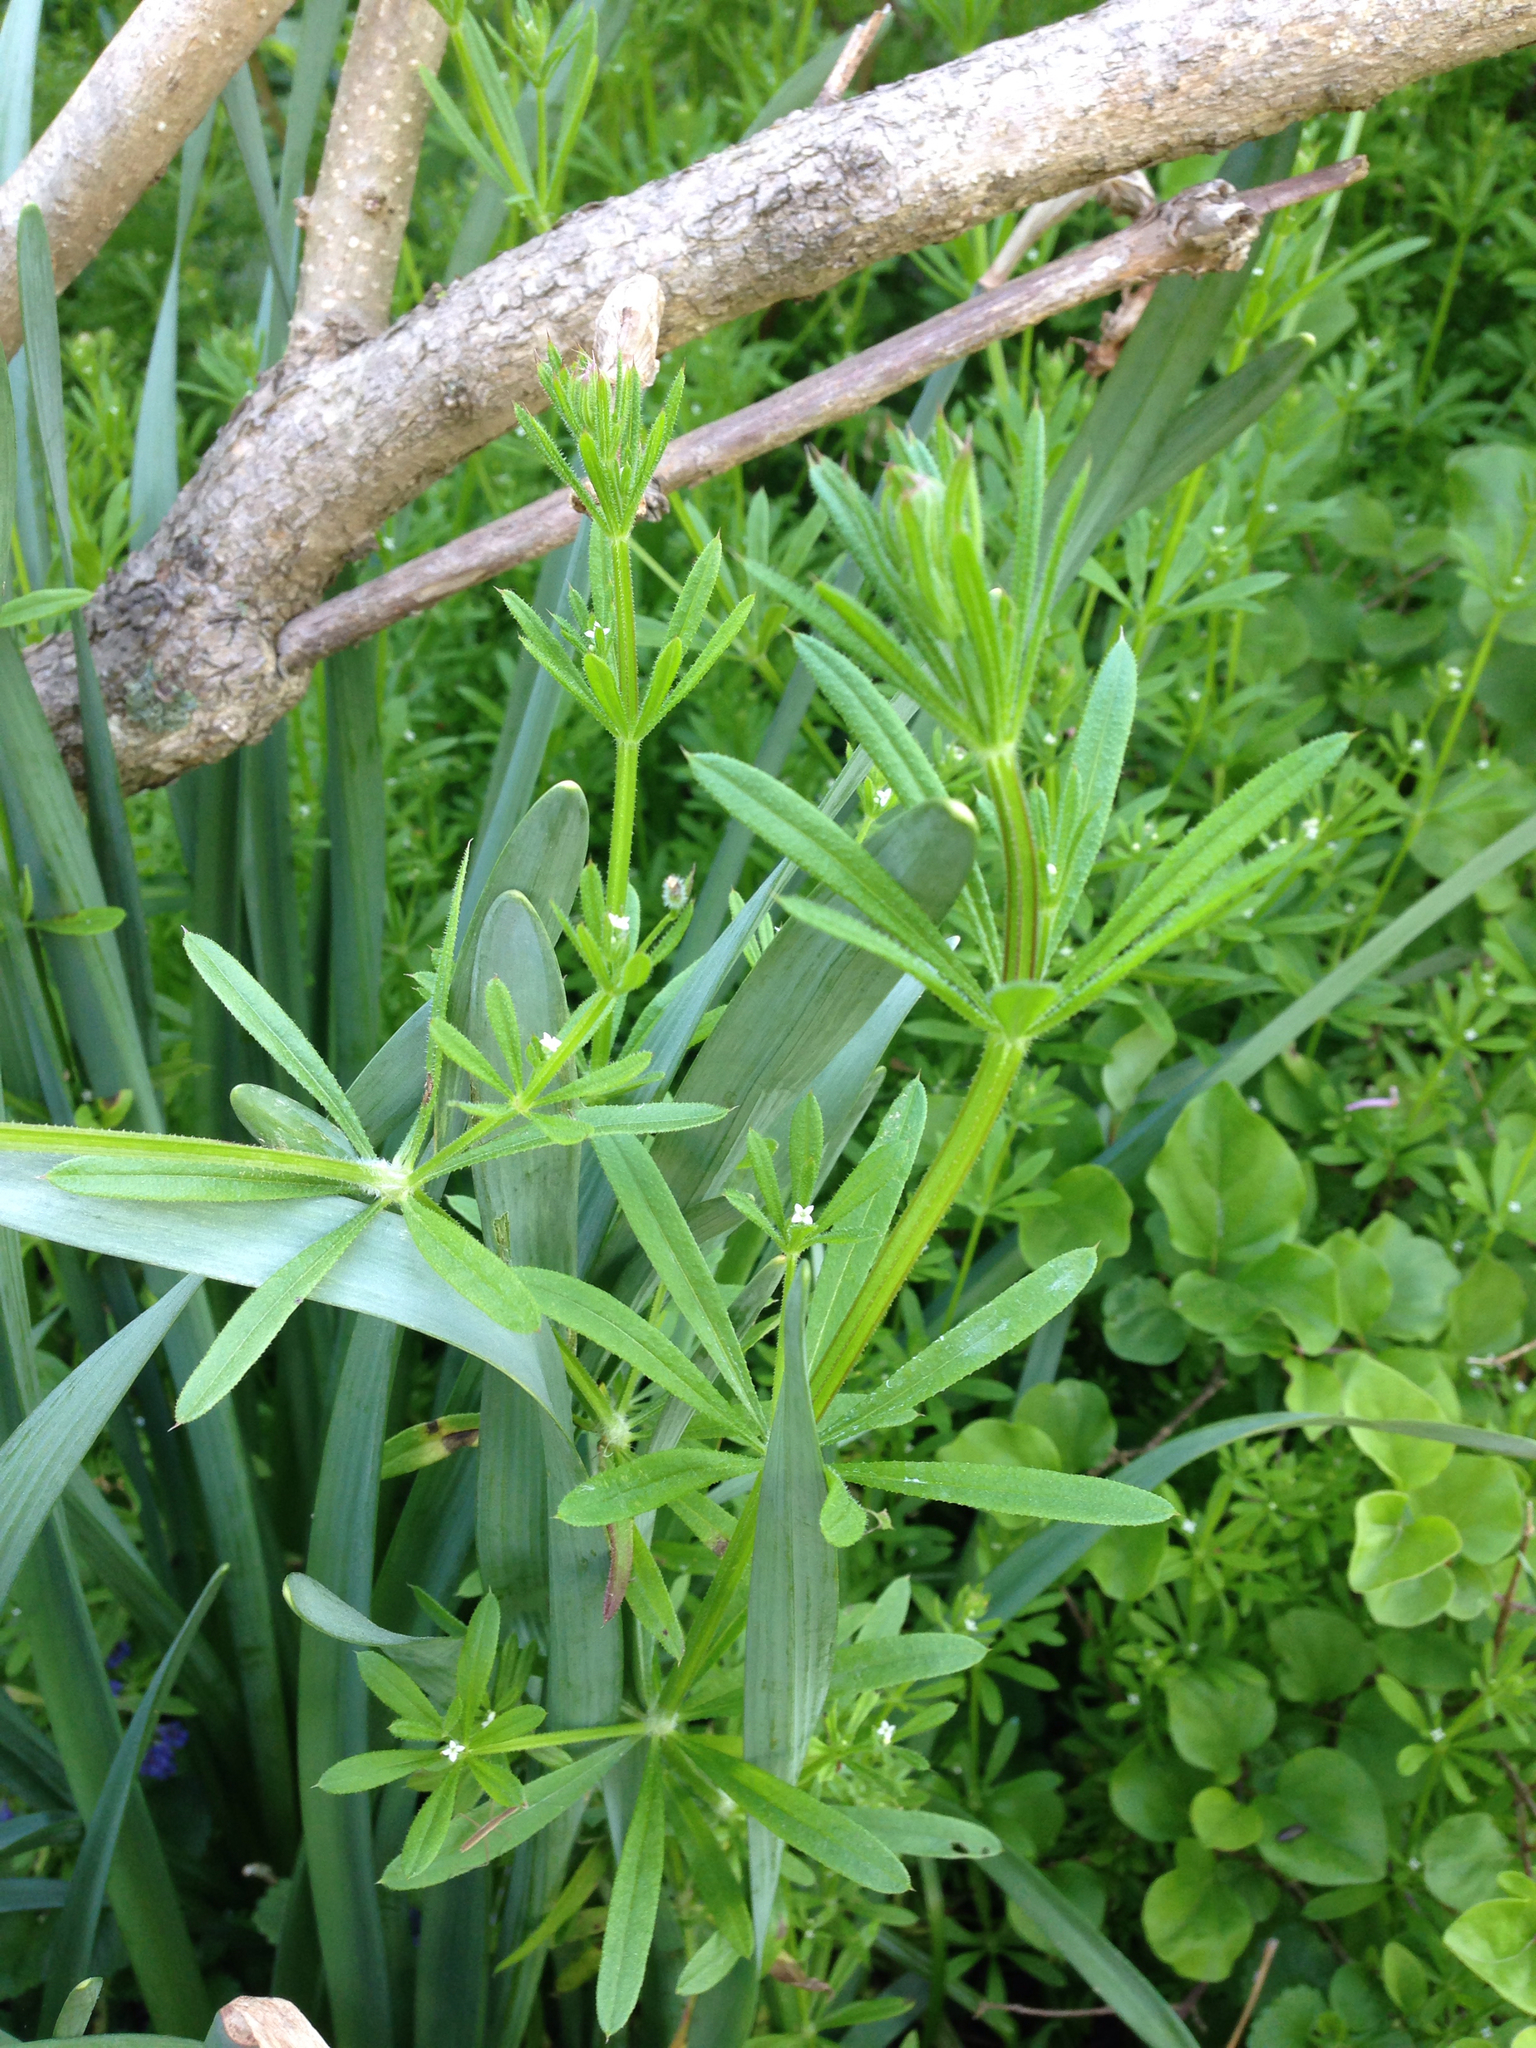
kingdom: Plantae
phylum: Tracheophyta
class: Magnoliopsida
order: Gentianales
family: Rubiaceae
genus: Galium
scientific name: Galium aparine
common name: Cleavers
